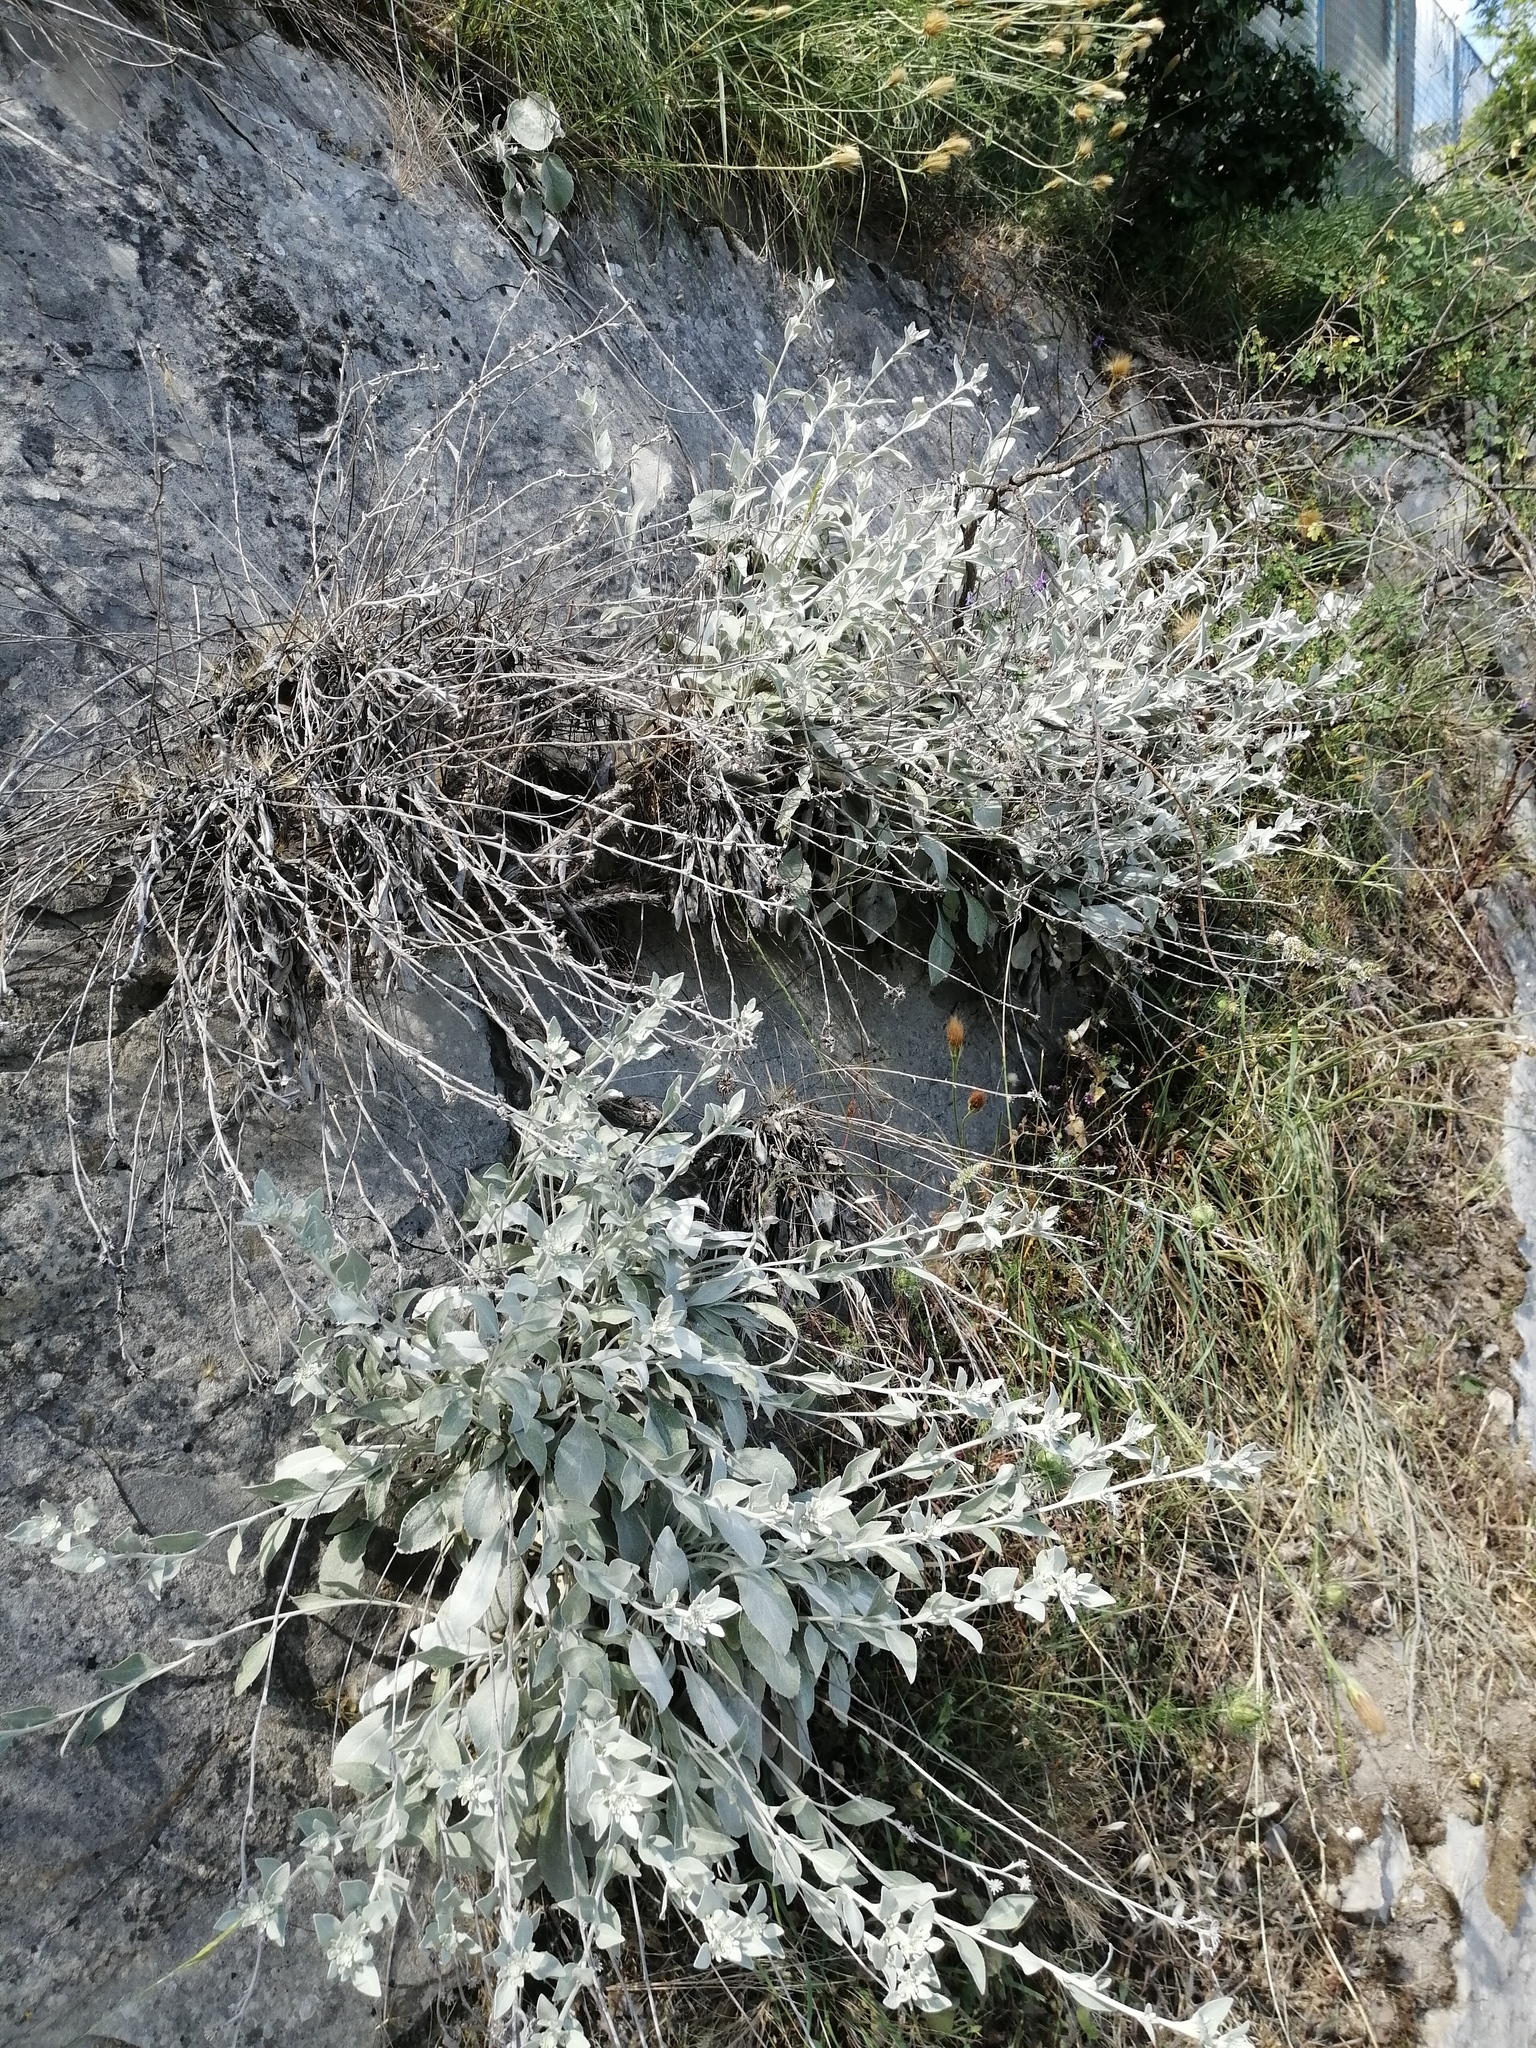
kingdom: Plantae
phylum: Tracheophyta
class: Magnoliopsida
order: Asterales
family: Asteraceae
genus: Pentanema
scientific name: Pentanema verbascifolium
